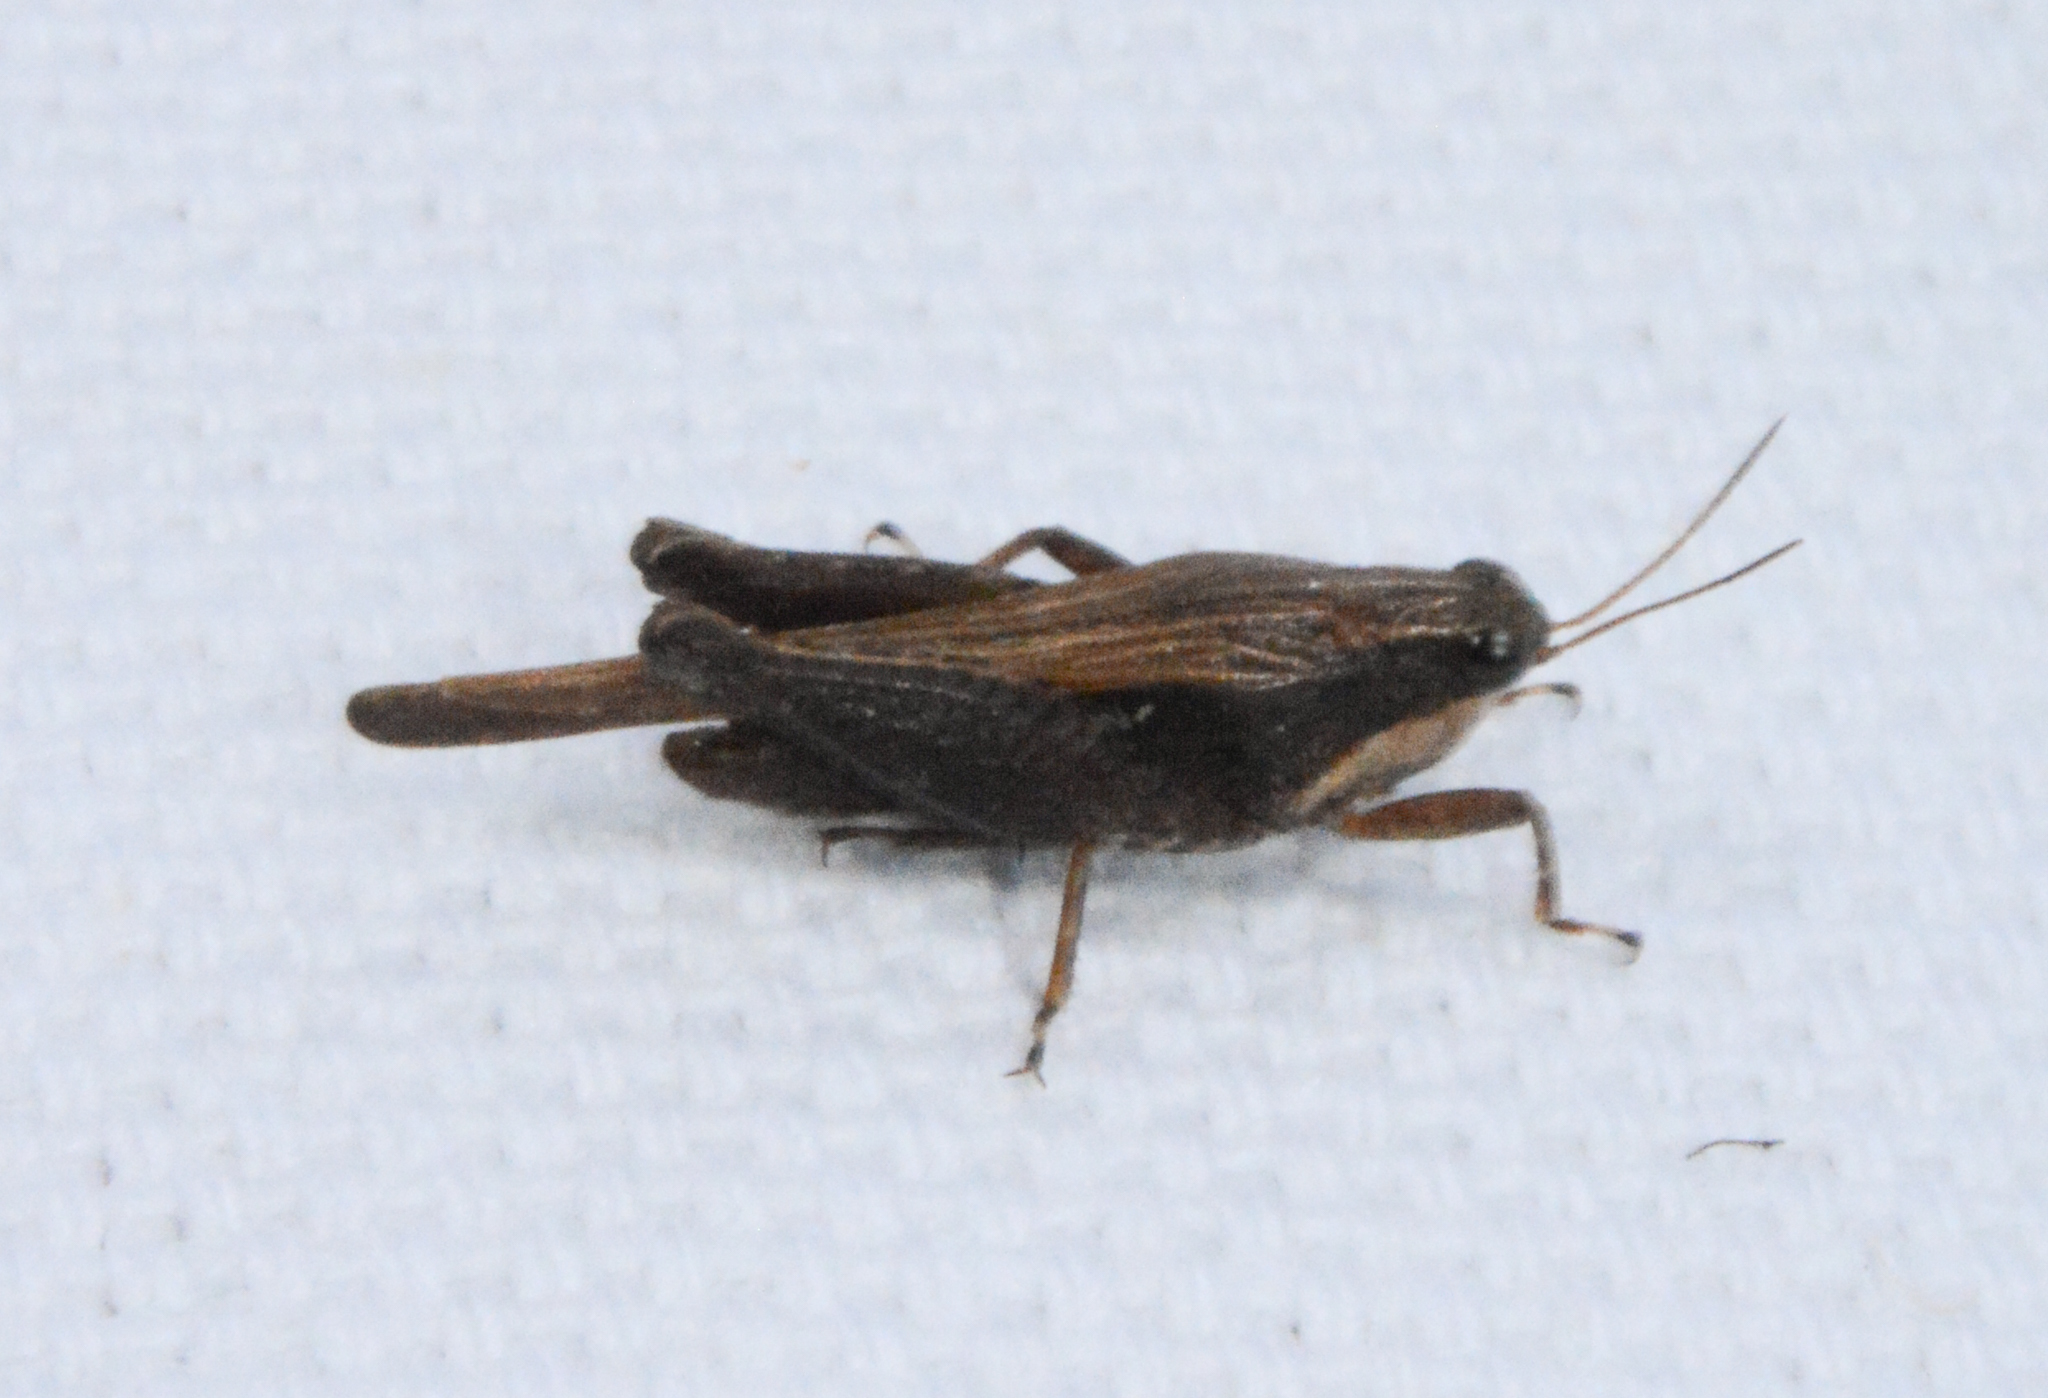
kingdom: Animalia
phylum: Arthropoda
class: Insecta
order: Orthoptera
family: Tetrigidae
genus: Tettigidea
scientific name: Tettigidea laterale
